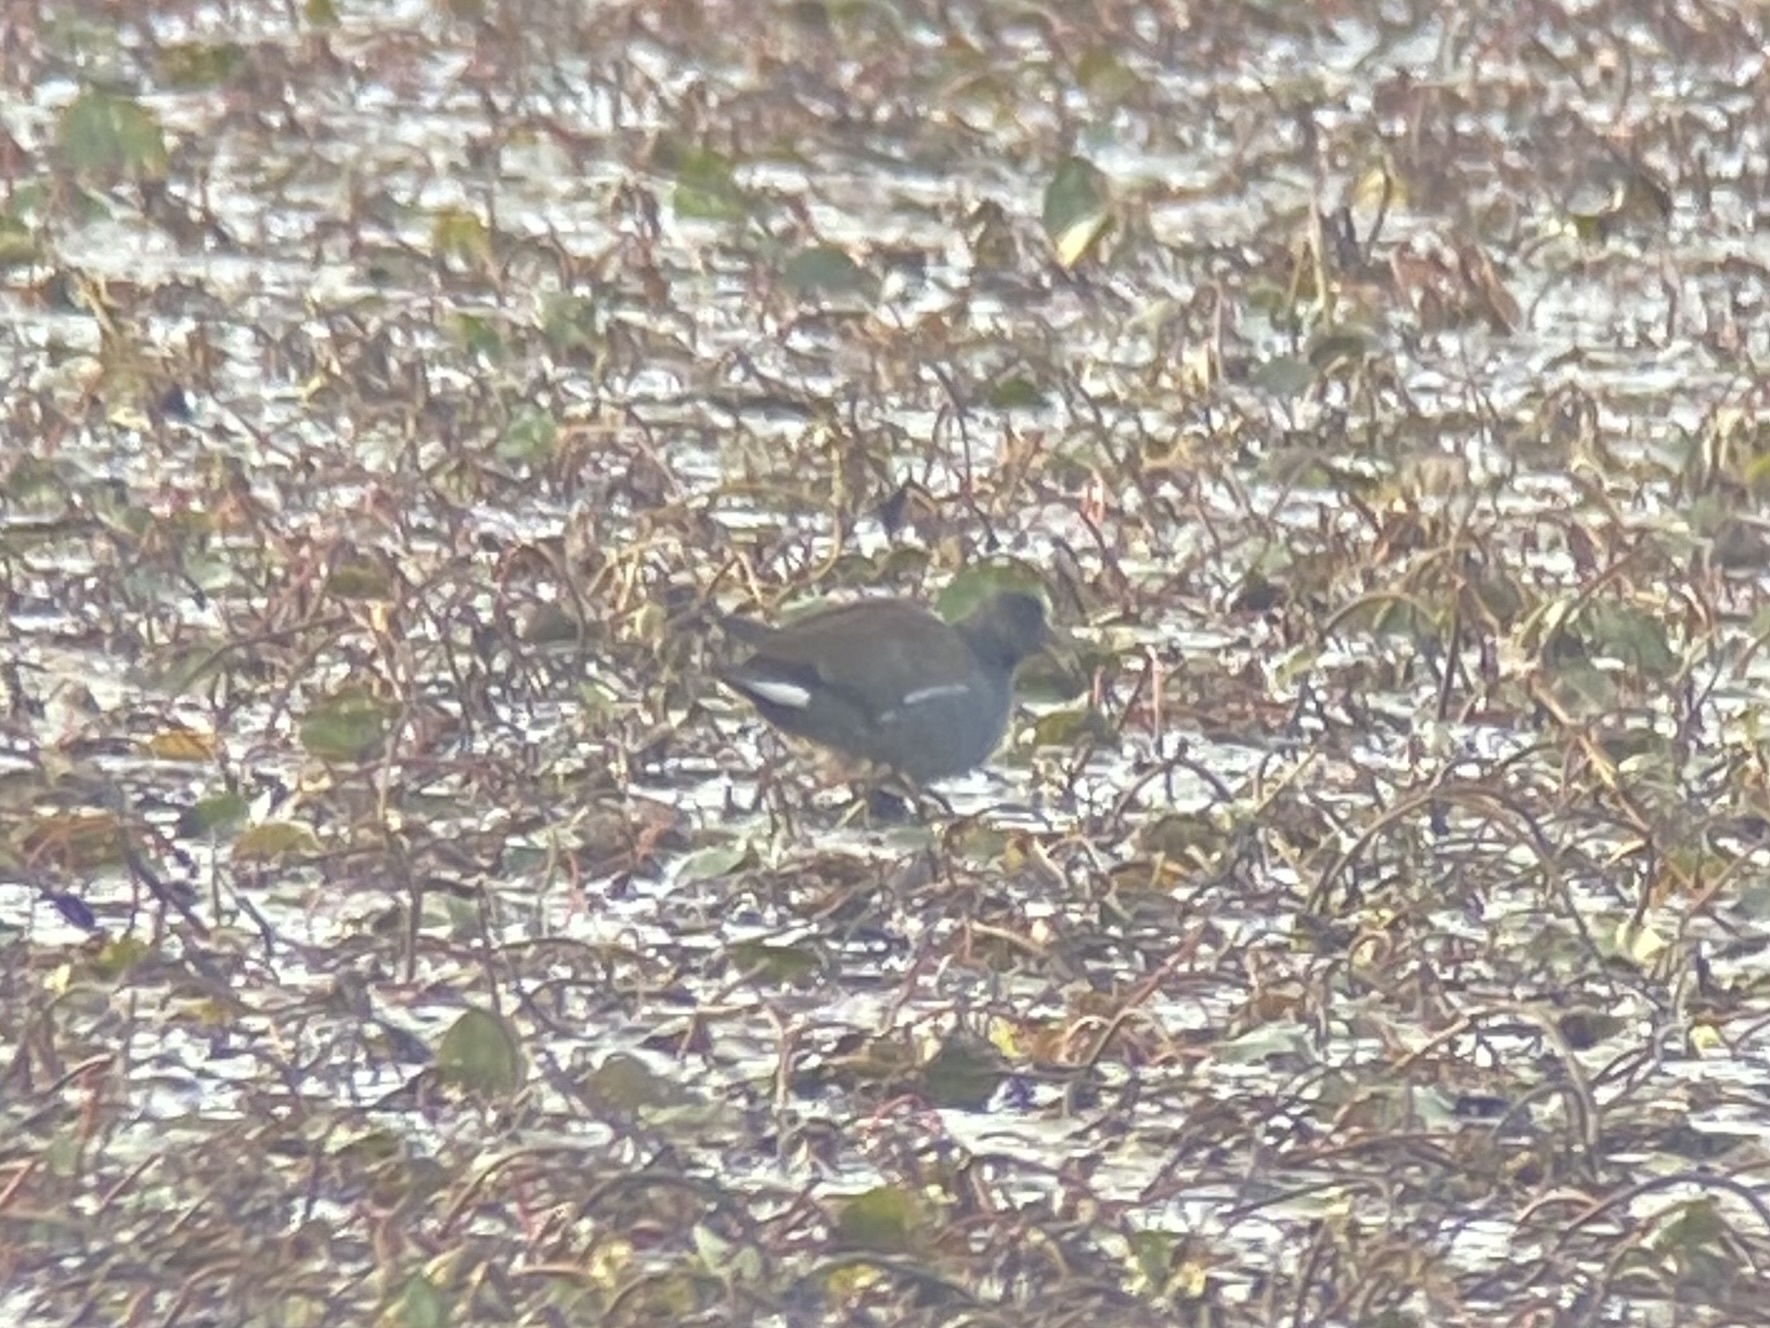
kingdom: Animalia
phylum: Chordata
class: Aves
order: Gruiformes
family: Rallidae
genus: Gallinula
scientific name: Gallinula chloropus
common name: Common moorhen
